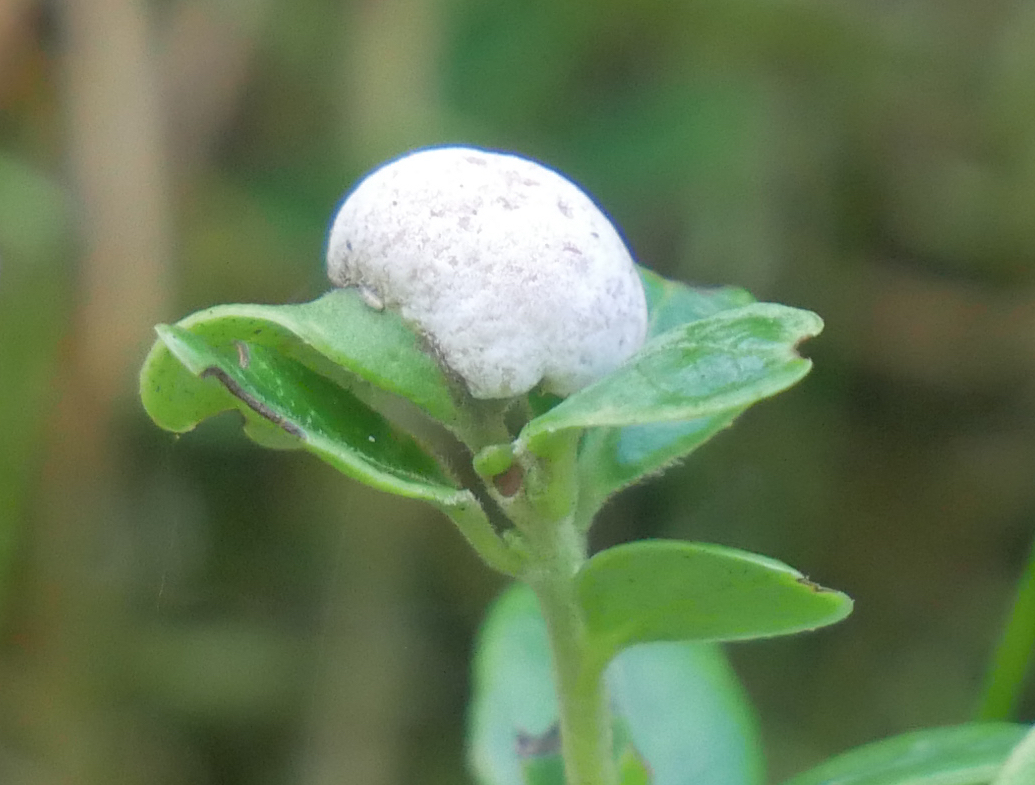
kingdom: Fungi
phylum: Basidiomycota
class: Exobasidiomycetes
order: Exobasidiales
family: Exobasidiaceae
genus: Exobasidium
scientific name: Exobasidium vaccinii
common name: Cowberry redleaf
